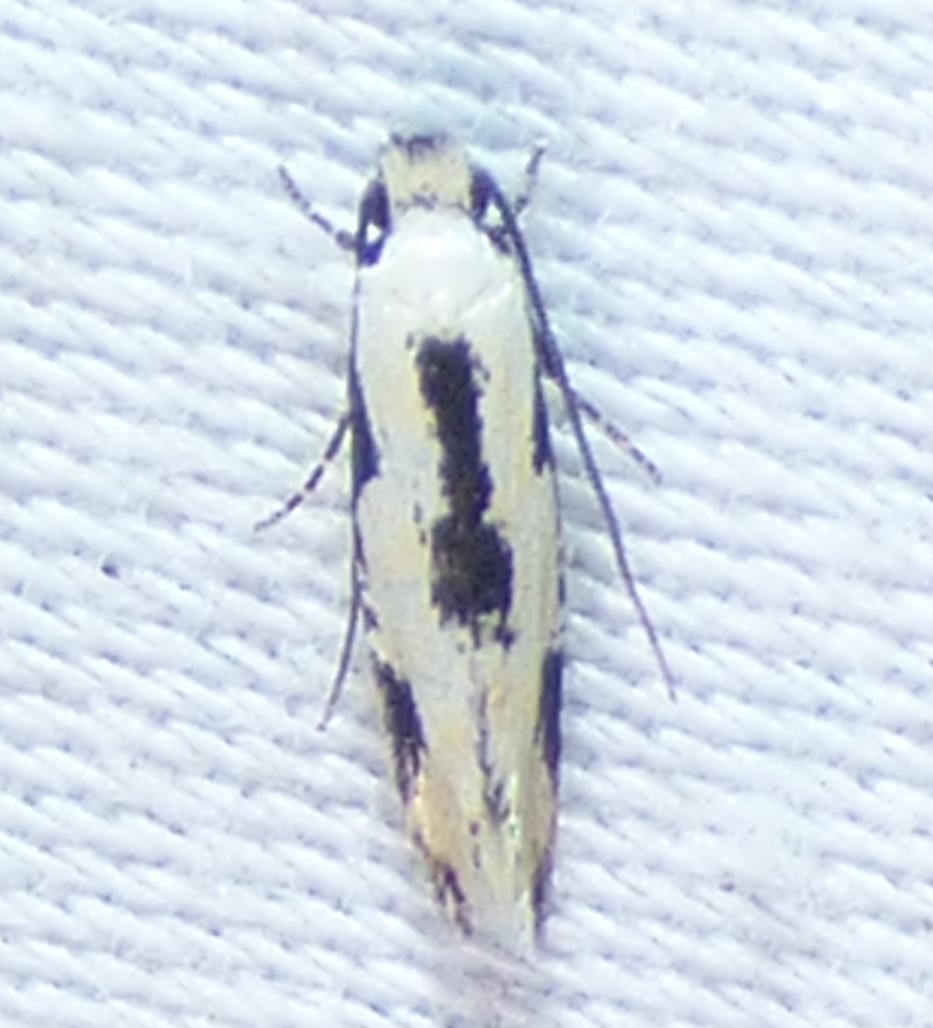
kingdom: Animalia
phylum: Arthropoda
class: Insecta
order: Lepidoptera
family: Meessiidae
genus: Mea
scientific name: Mea bipunctella
